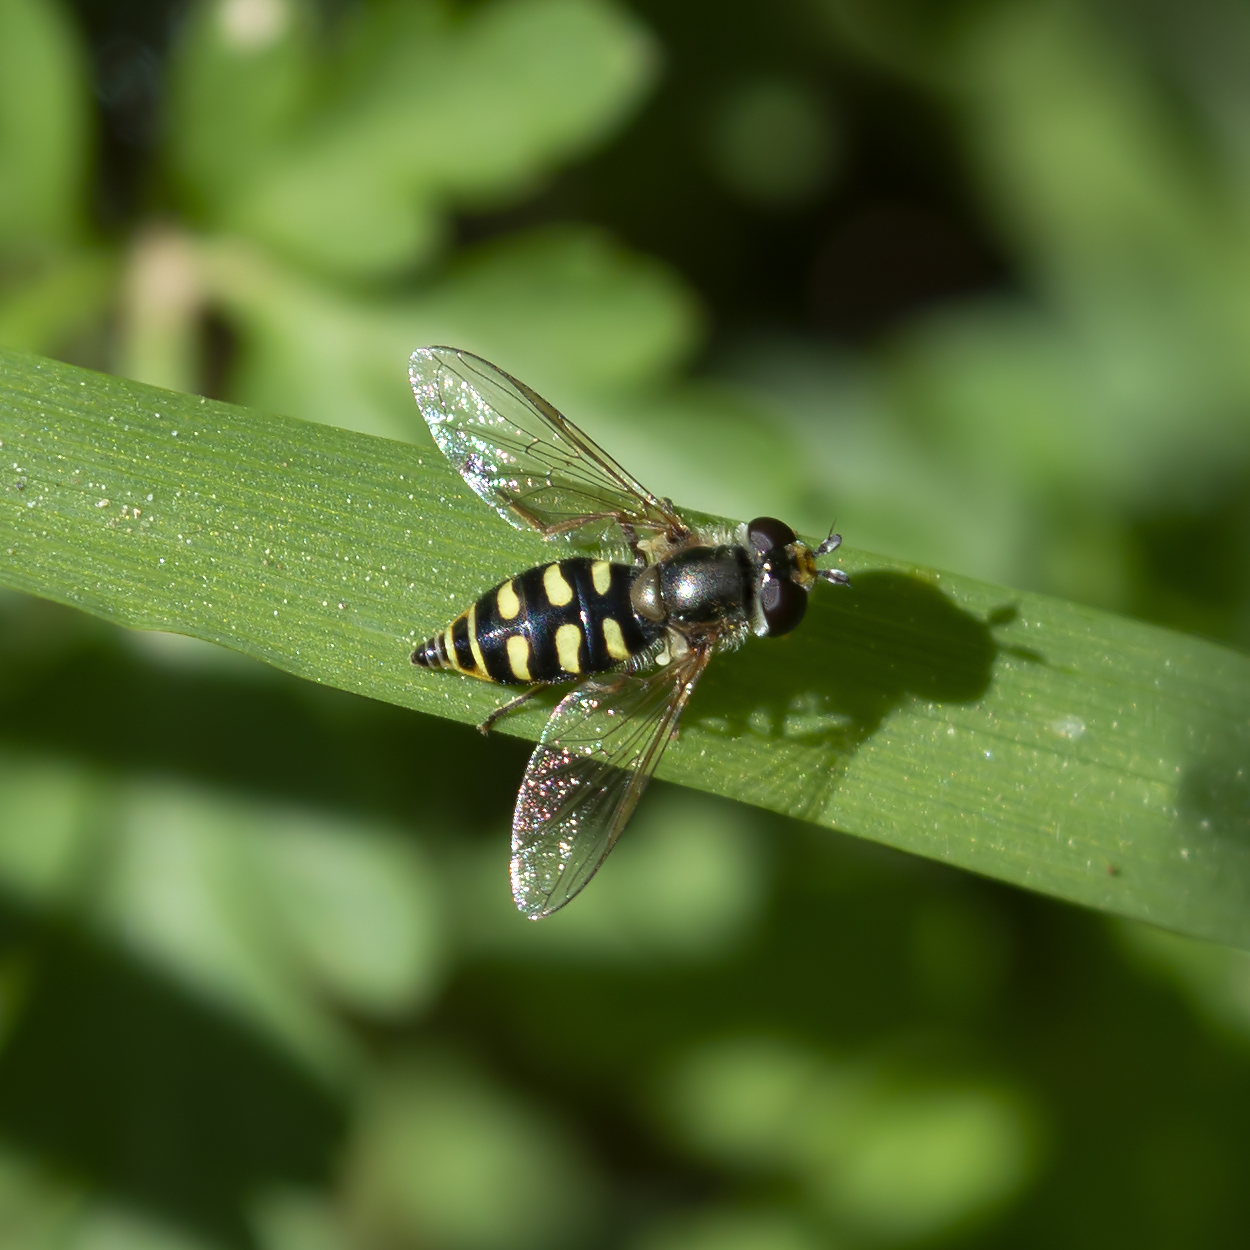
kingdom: Animalia
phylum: Arthropoda
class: Insecta
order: Diptera
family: Syrphidae
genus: Eupeodes
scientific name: Eupeodes luniger
